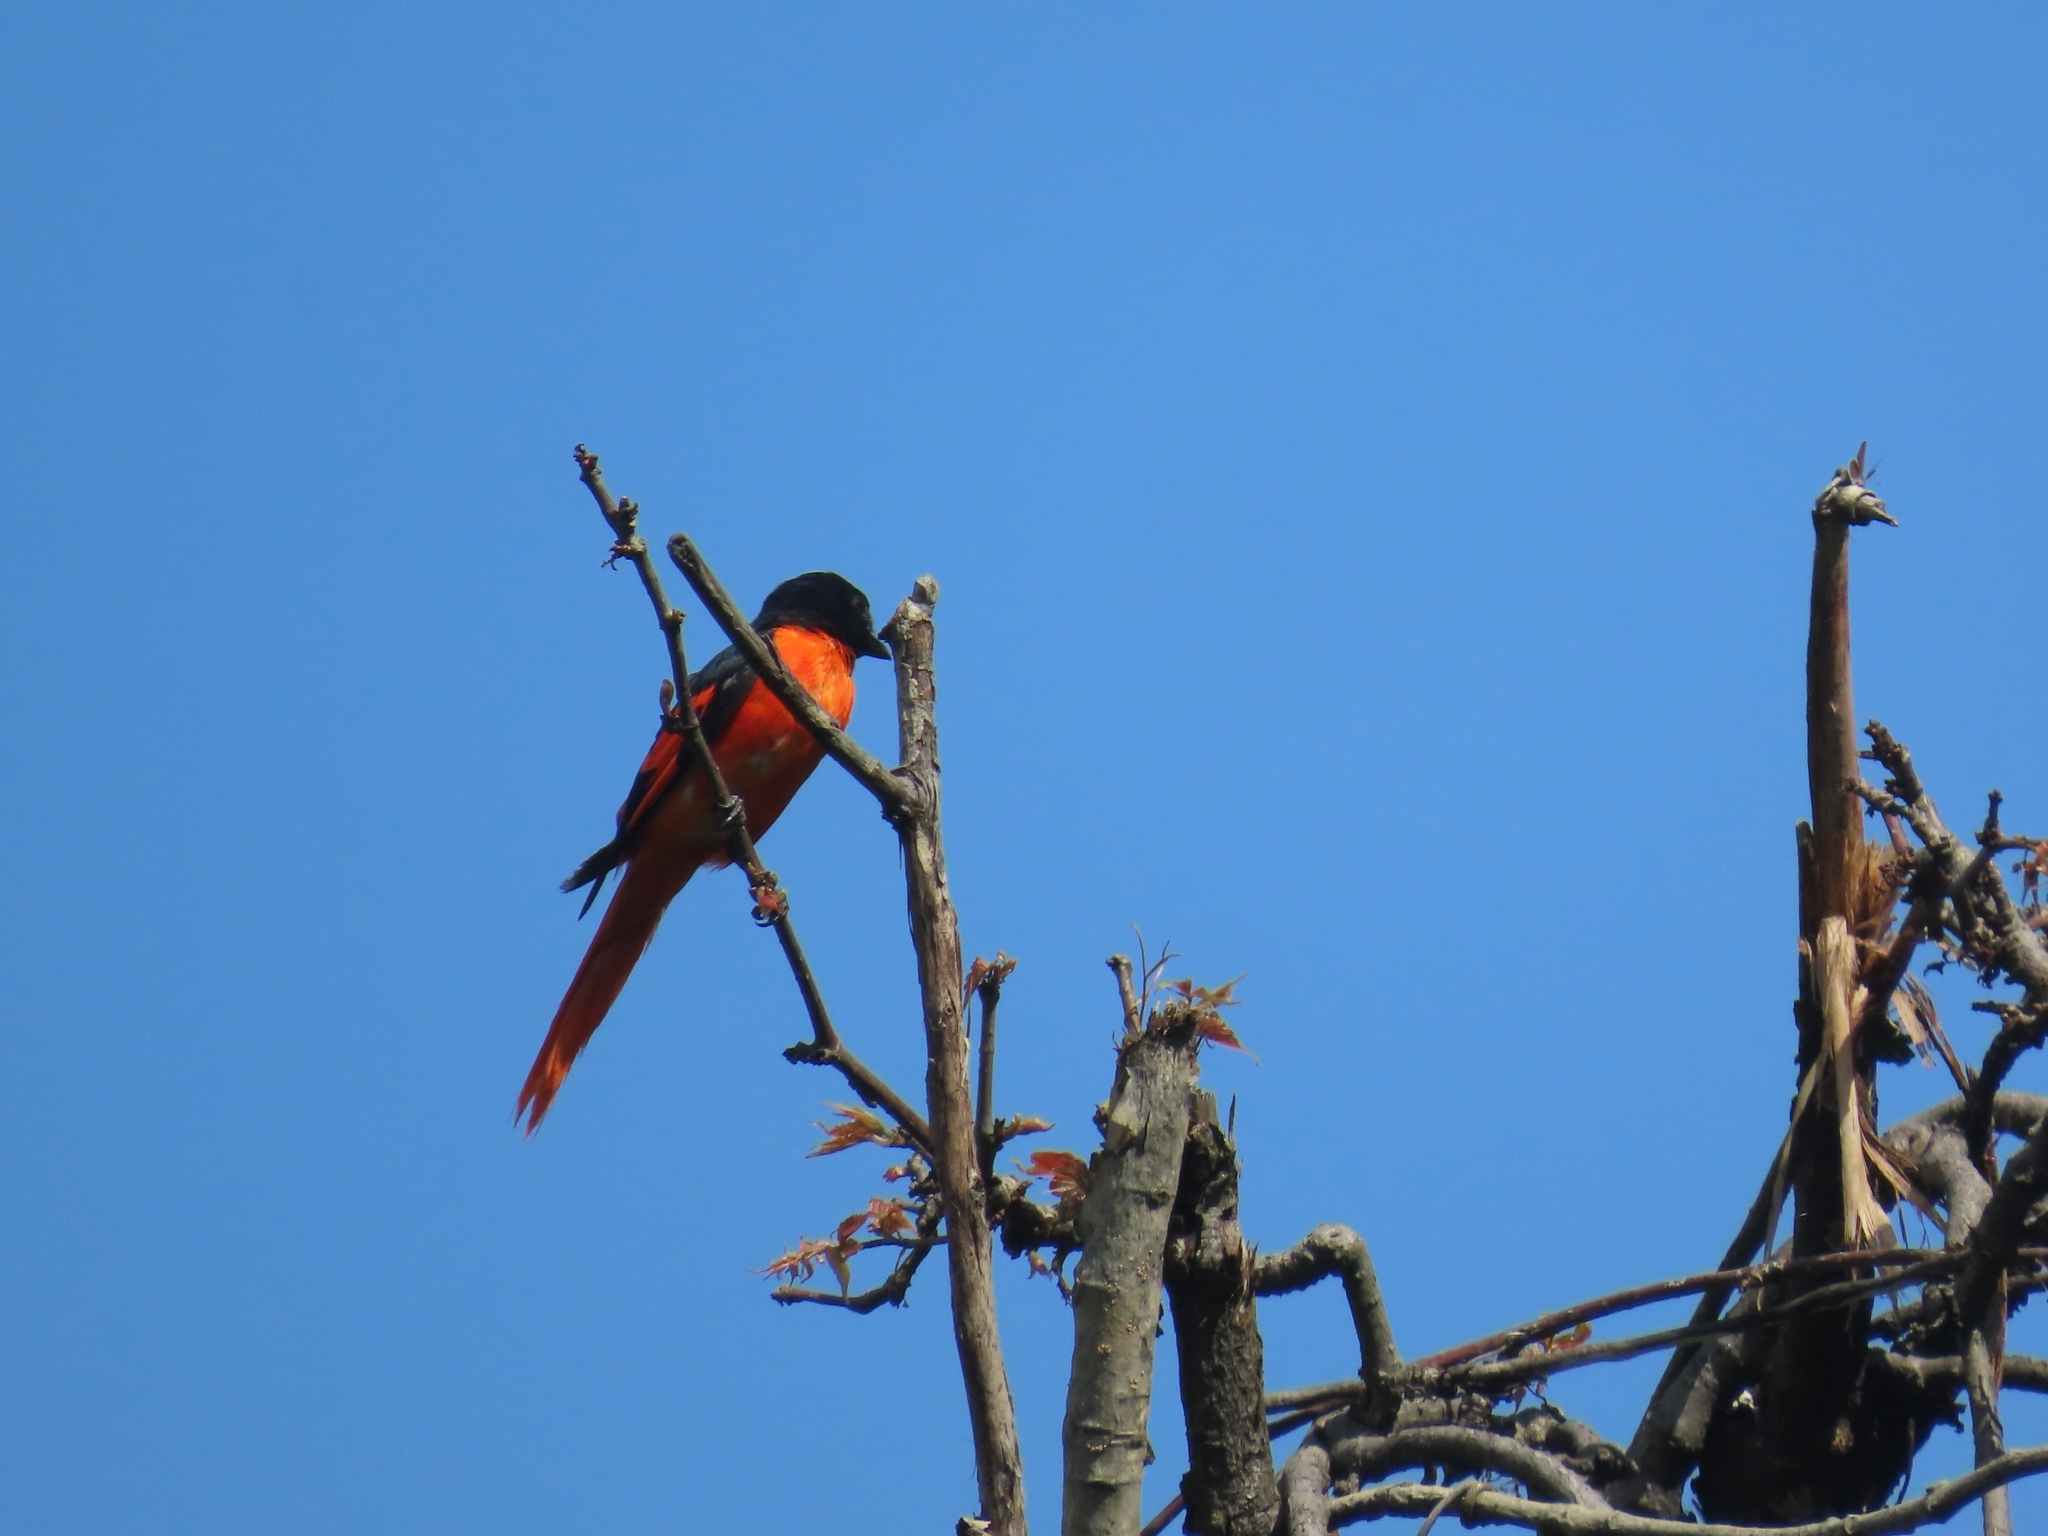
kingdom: Animalia
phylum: Chordata
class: Aves
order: Passeriformes
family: Campephagidae
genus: Pericrocotus
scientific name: Pericrocotus ethologus
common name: Long-tailed minivet
